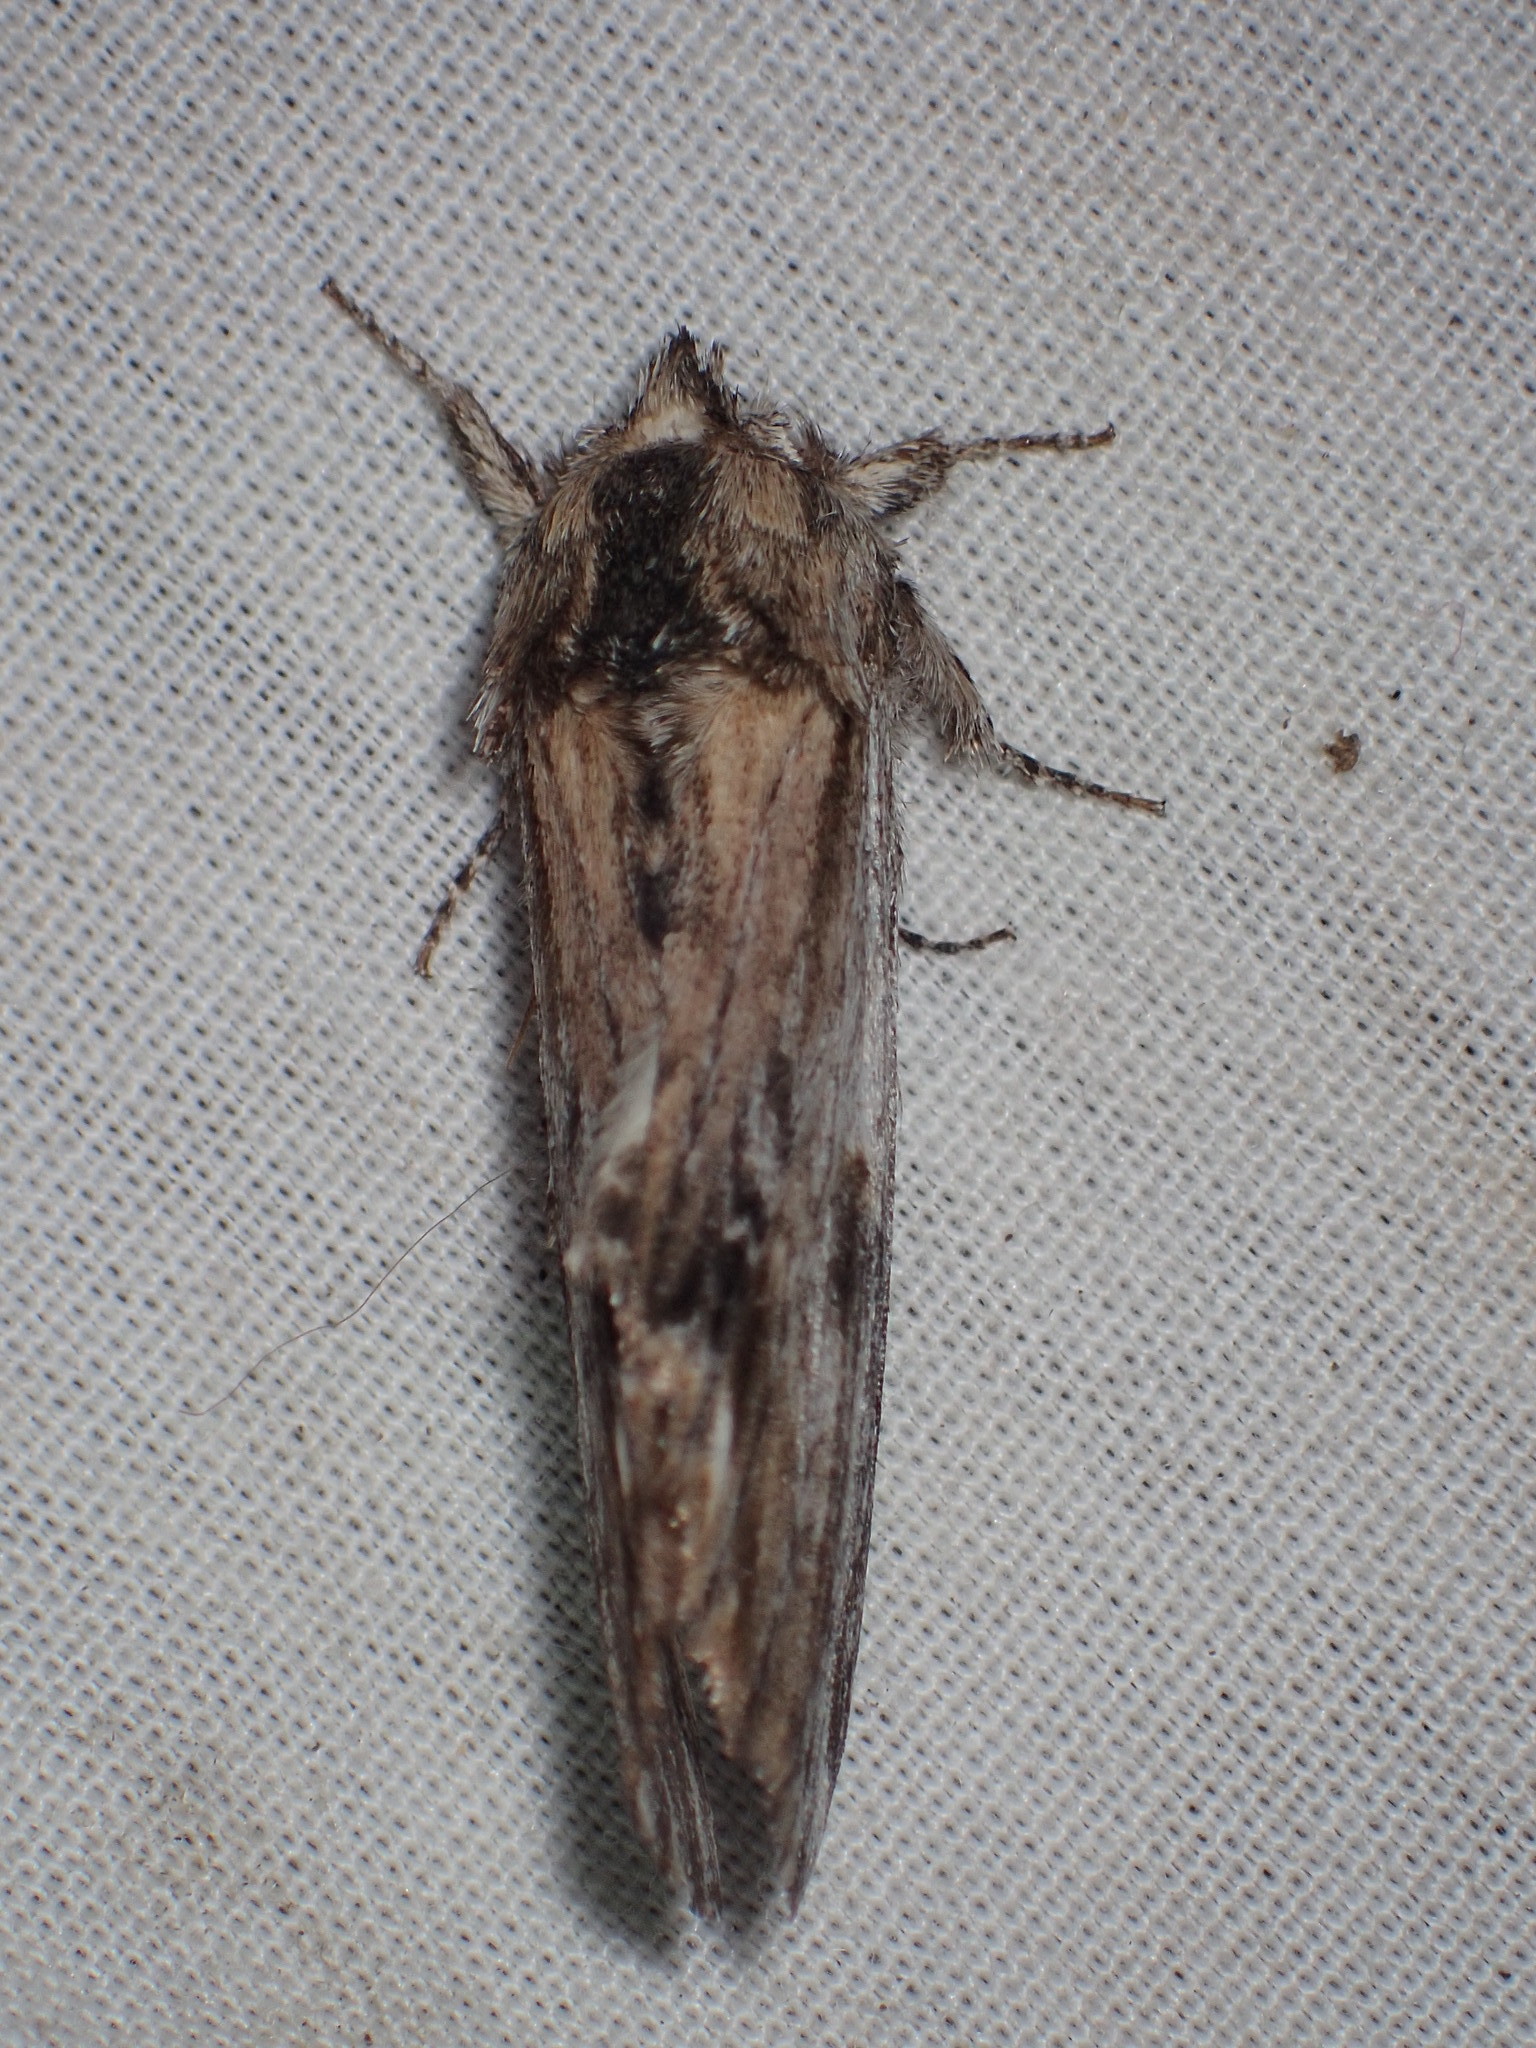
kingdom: Animalia
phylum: Arthropoda
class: Insecta
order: Lepidoptera
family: Notodontidae
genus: Oligocentria
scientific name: Oligocentria Ianassa lignicolor
